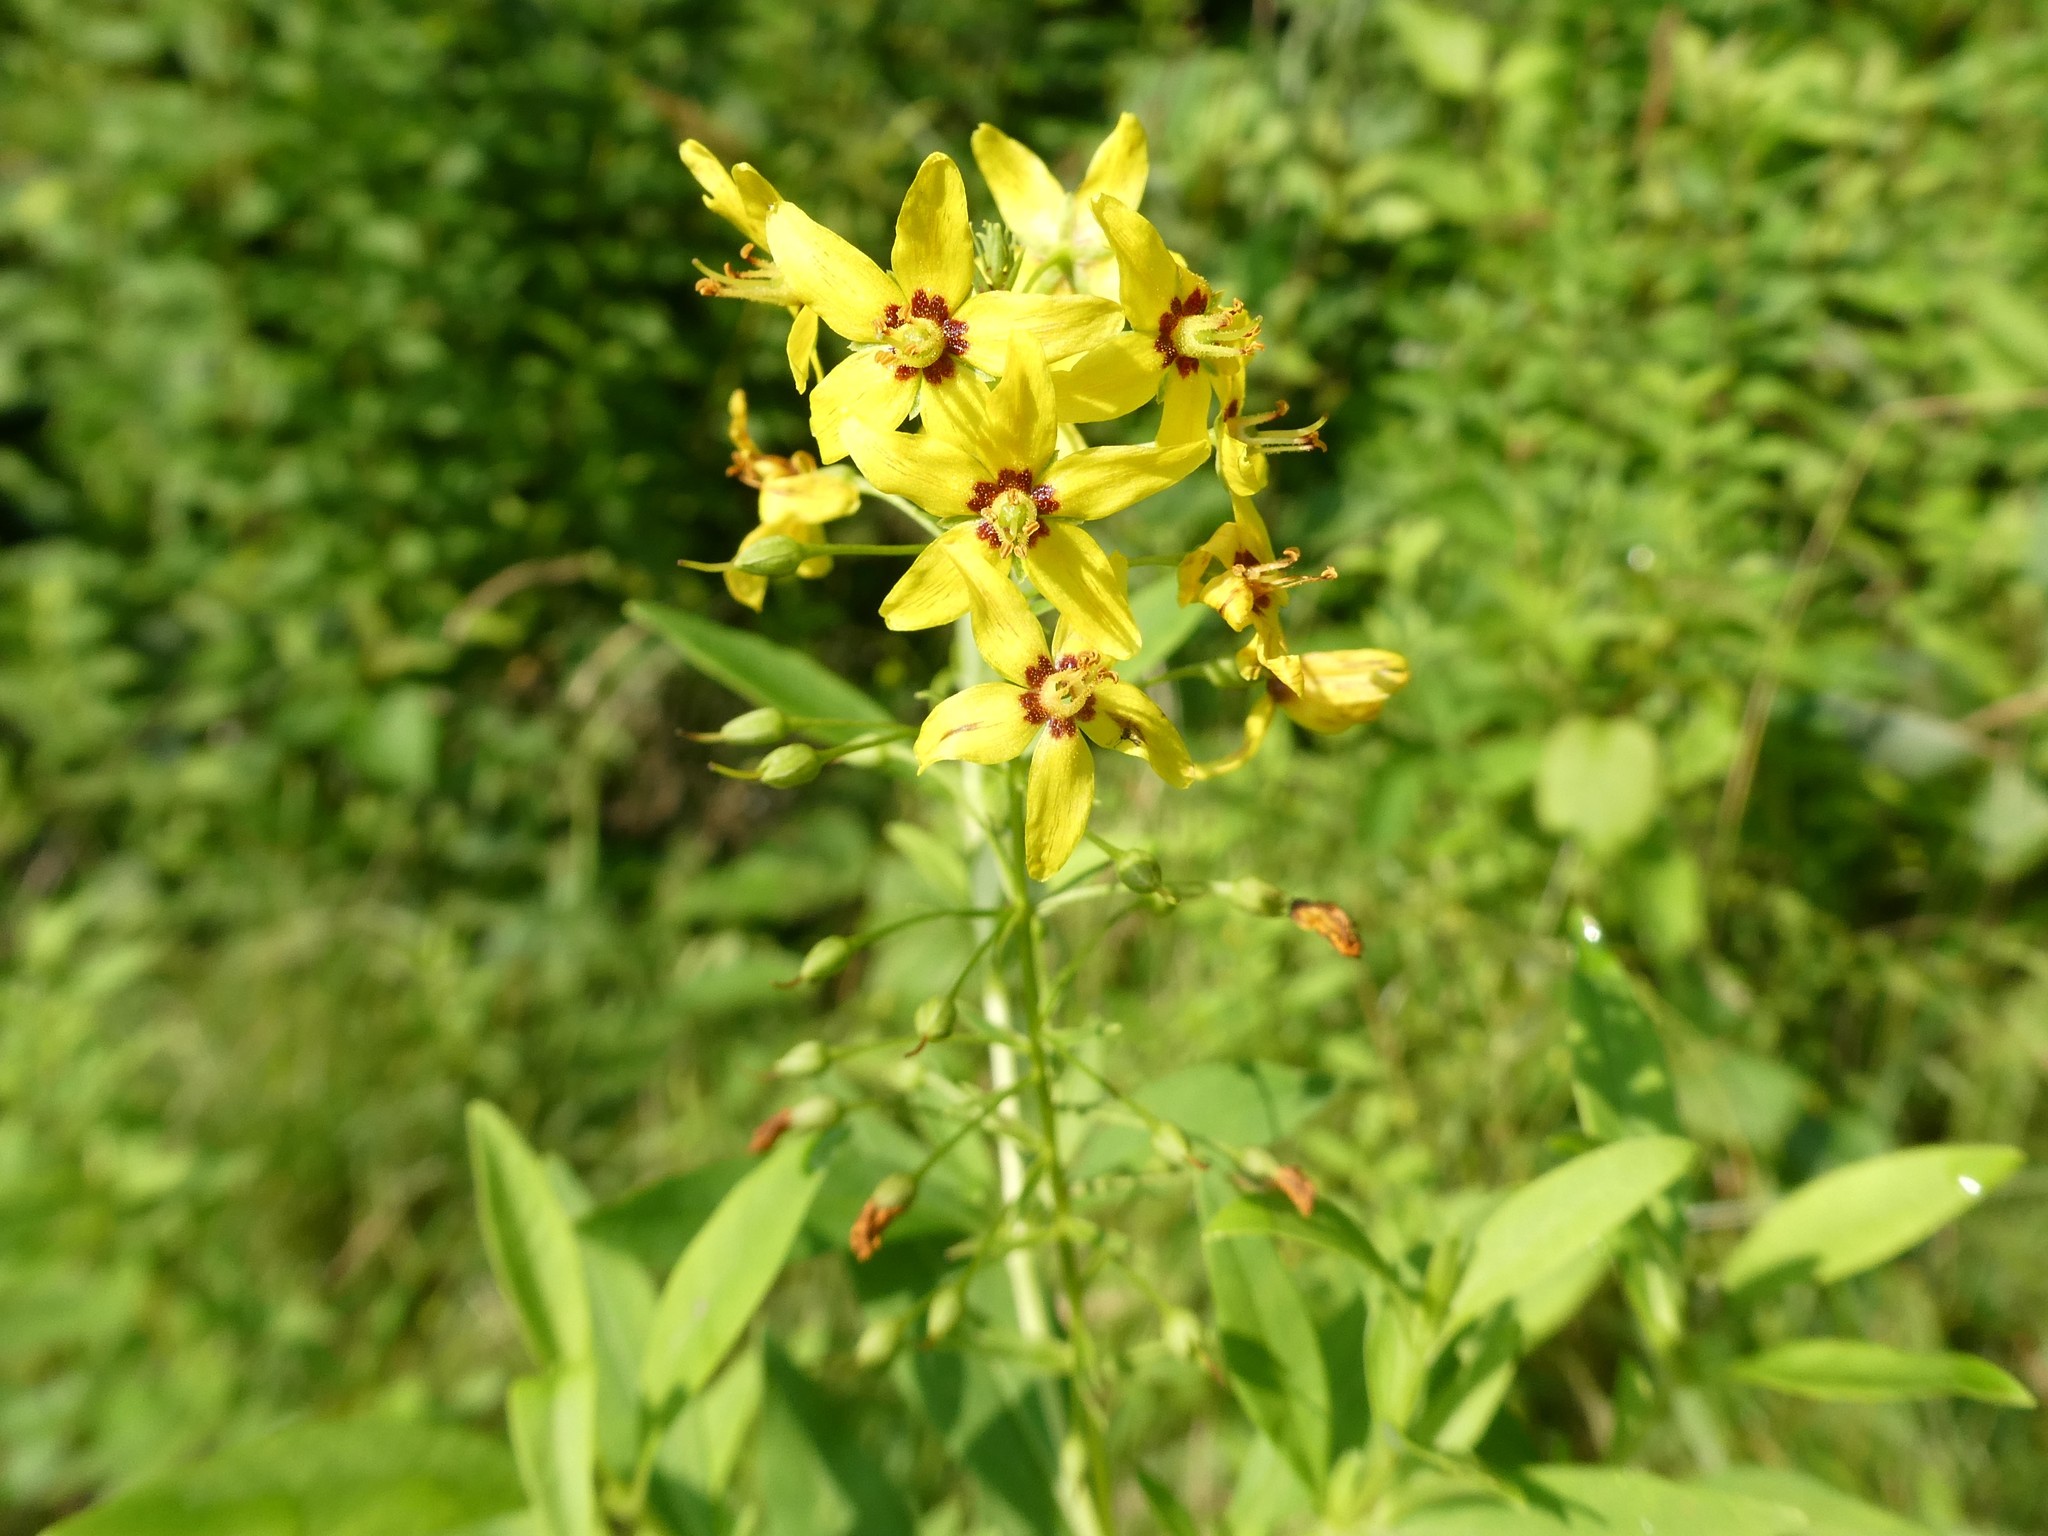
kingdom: Plantae
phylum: Tracheophyta
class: Magnoliopsida
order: Ericales
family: Primulaceae
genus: Lysimachia
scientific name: Lysimachia terrestris
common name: Lake loosestrife
